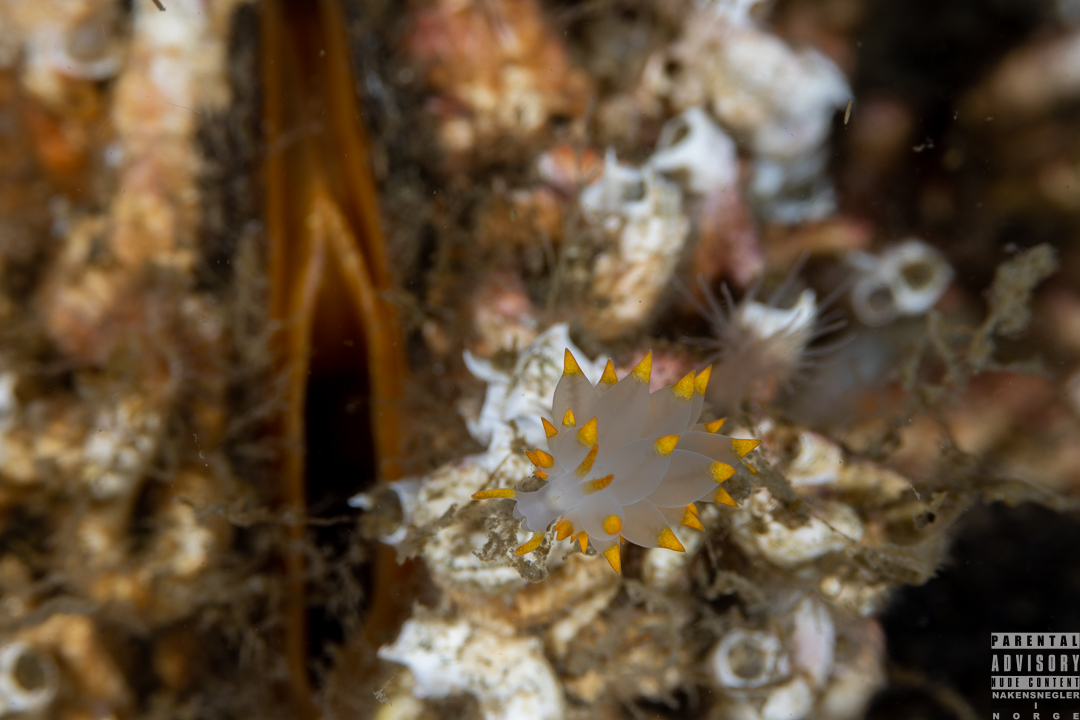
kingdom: Animalia
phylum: Mollusca
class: Gastropoda
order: Nudibranchia
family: Eubranchidae
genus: Amphorina
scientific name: Amphorina farrani
